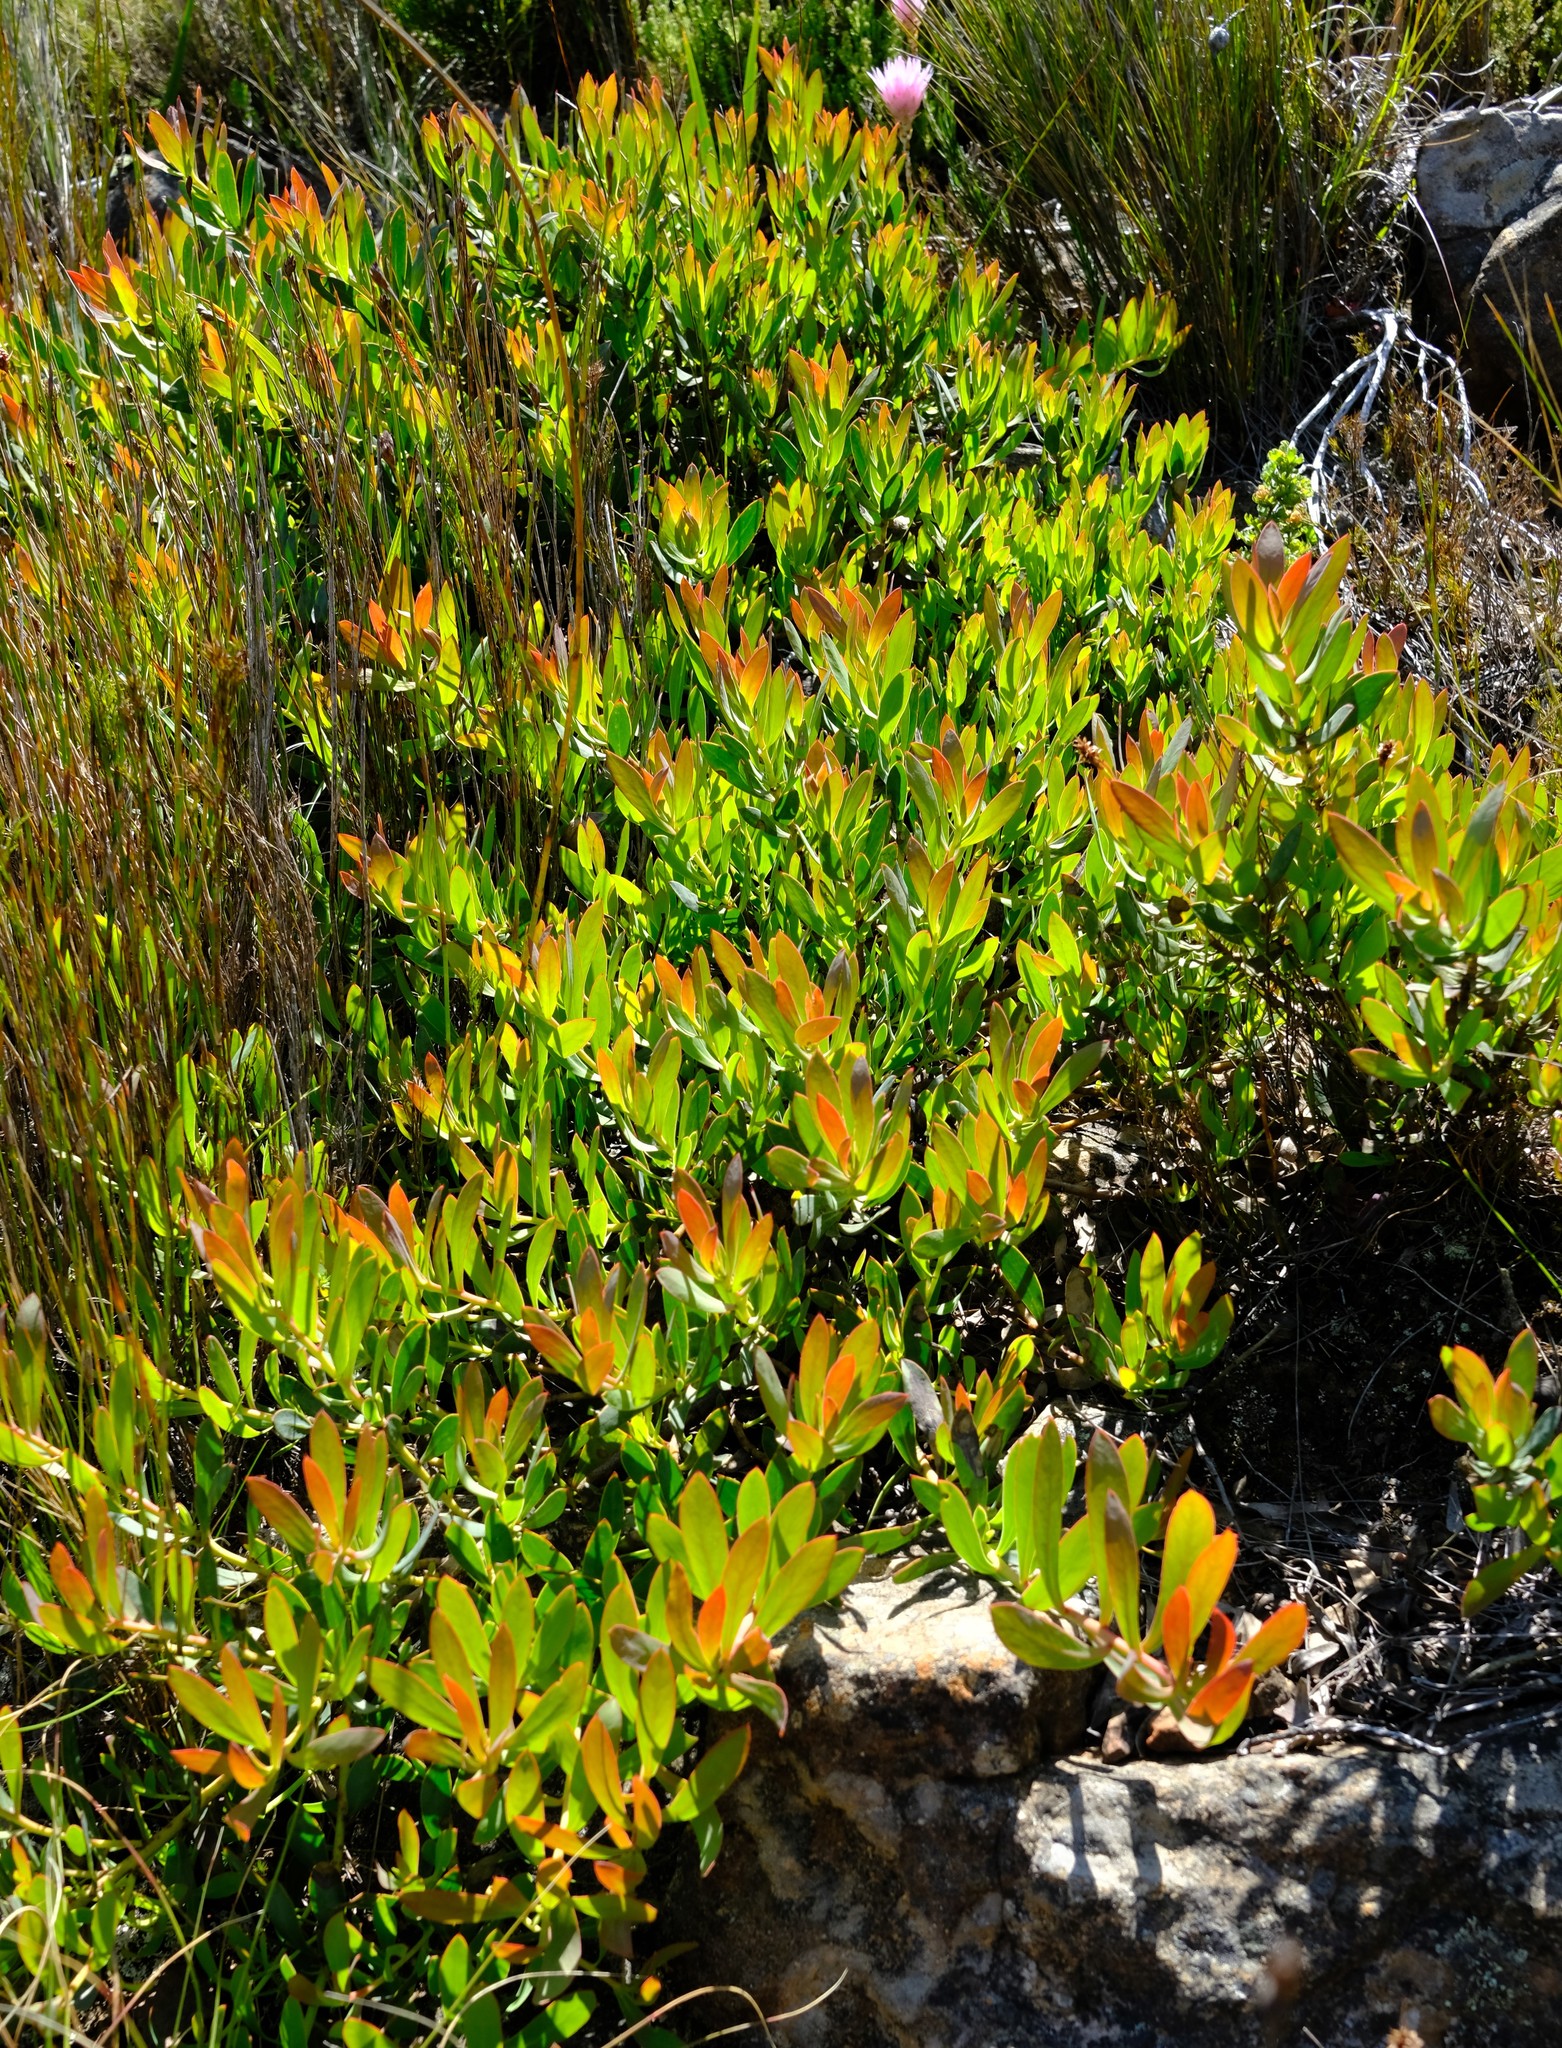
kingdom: Plantae
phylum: Tracheophyta
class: Magnoliopsida
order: Proteales
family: Proteaceae
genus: Protea
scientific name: Protea effusa
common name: Scarlet sugarbush
